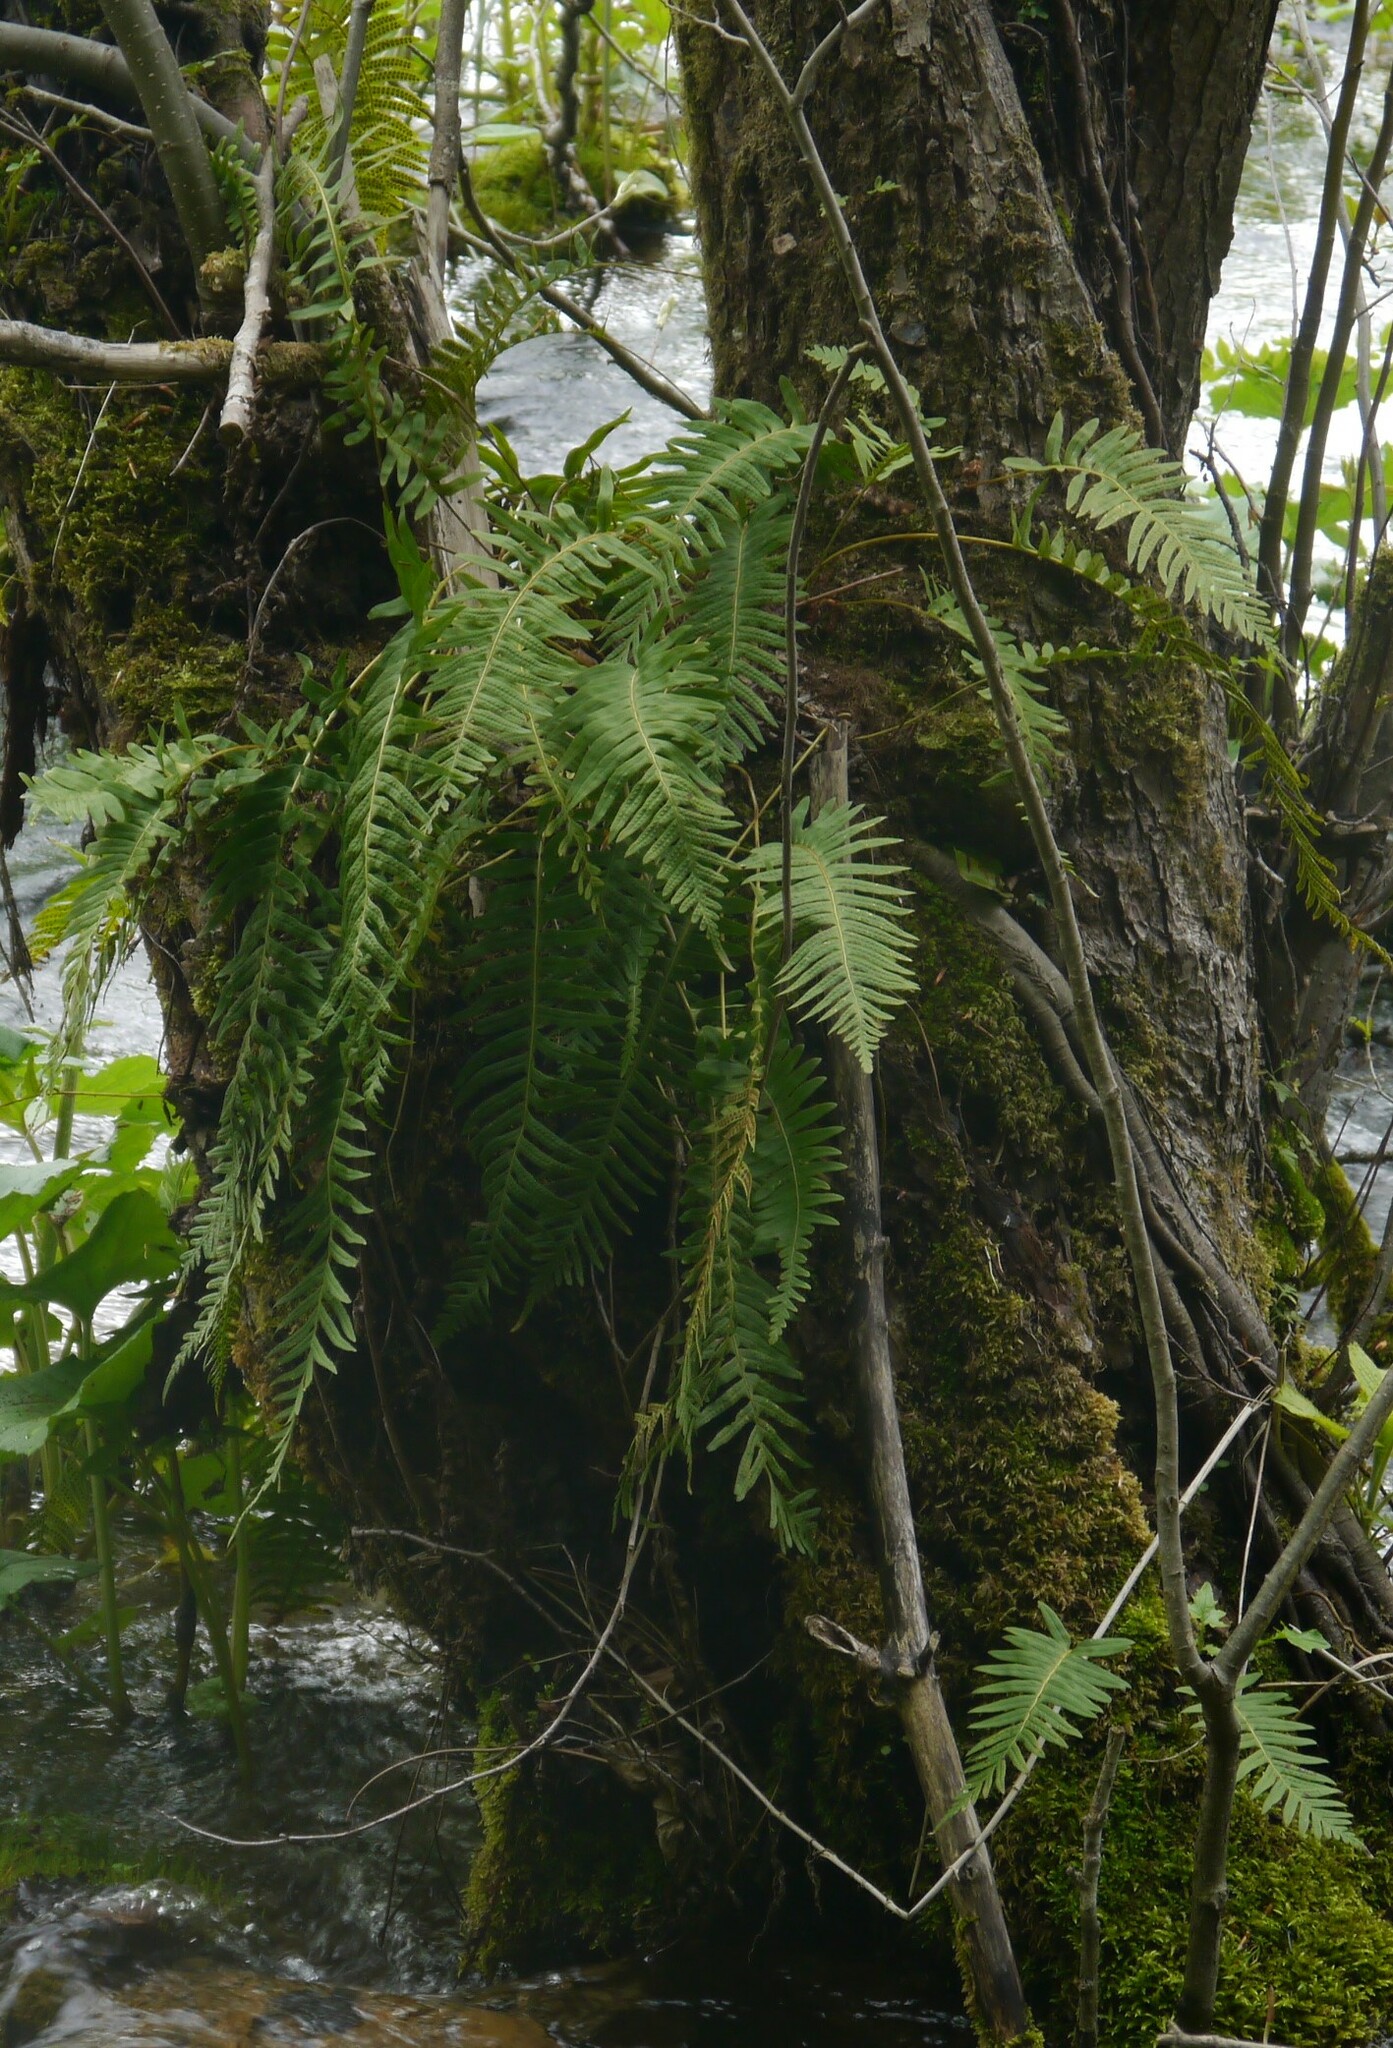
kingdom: Plantae
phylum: Tracheophyta
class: Polypodiopsida
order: Polypodiales
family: Polypodiaceae
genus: Polypodium
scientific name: Polypodium vulgare
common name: Common polypody
